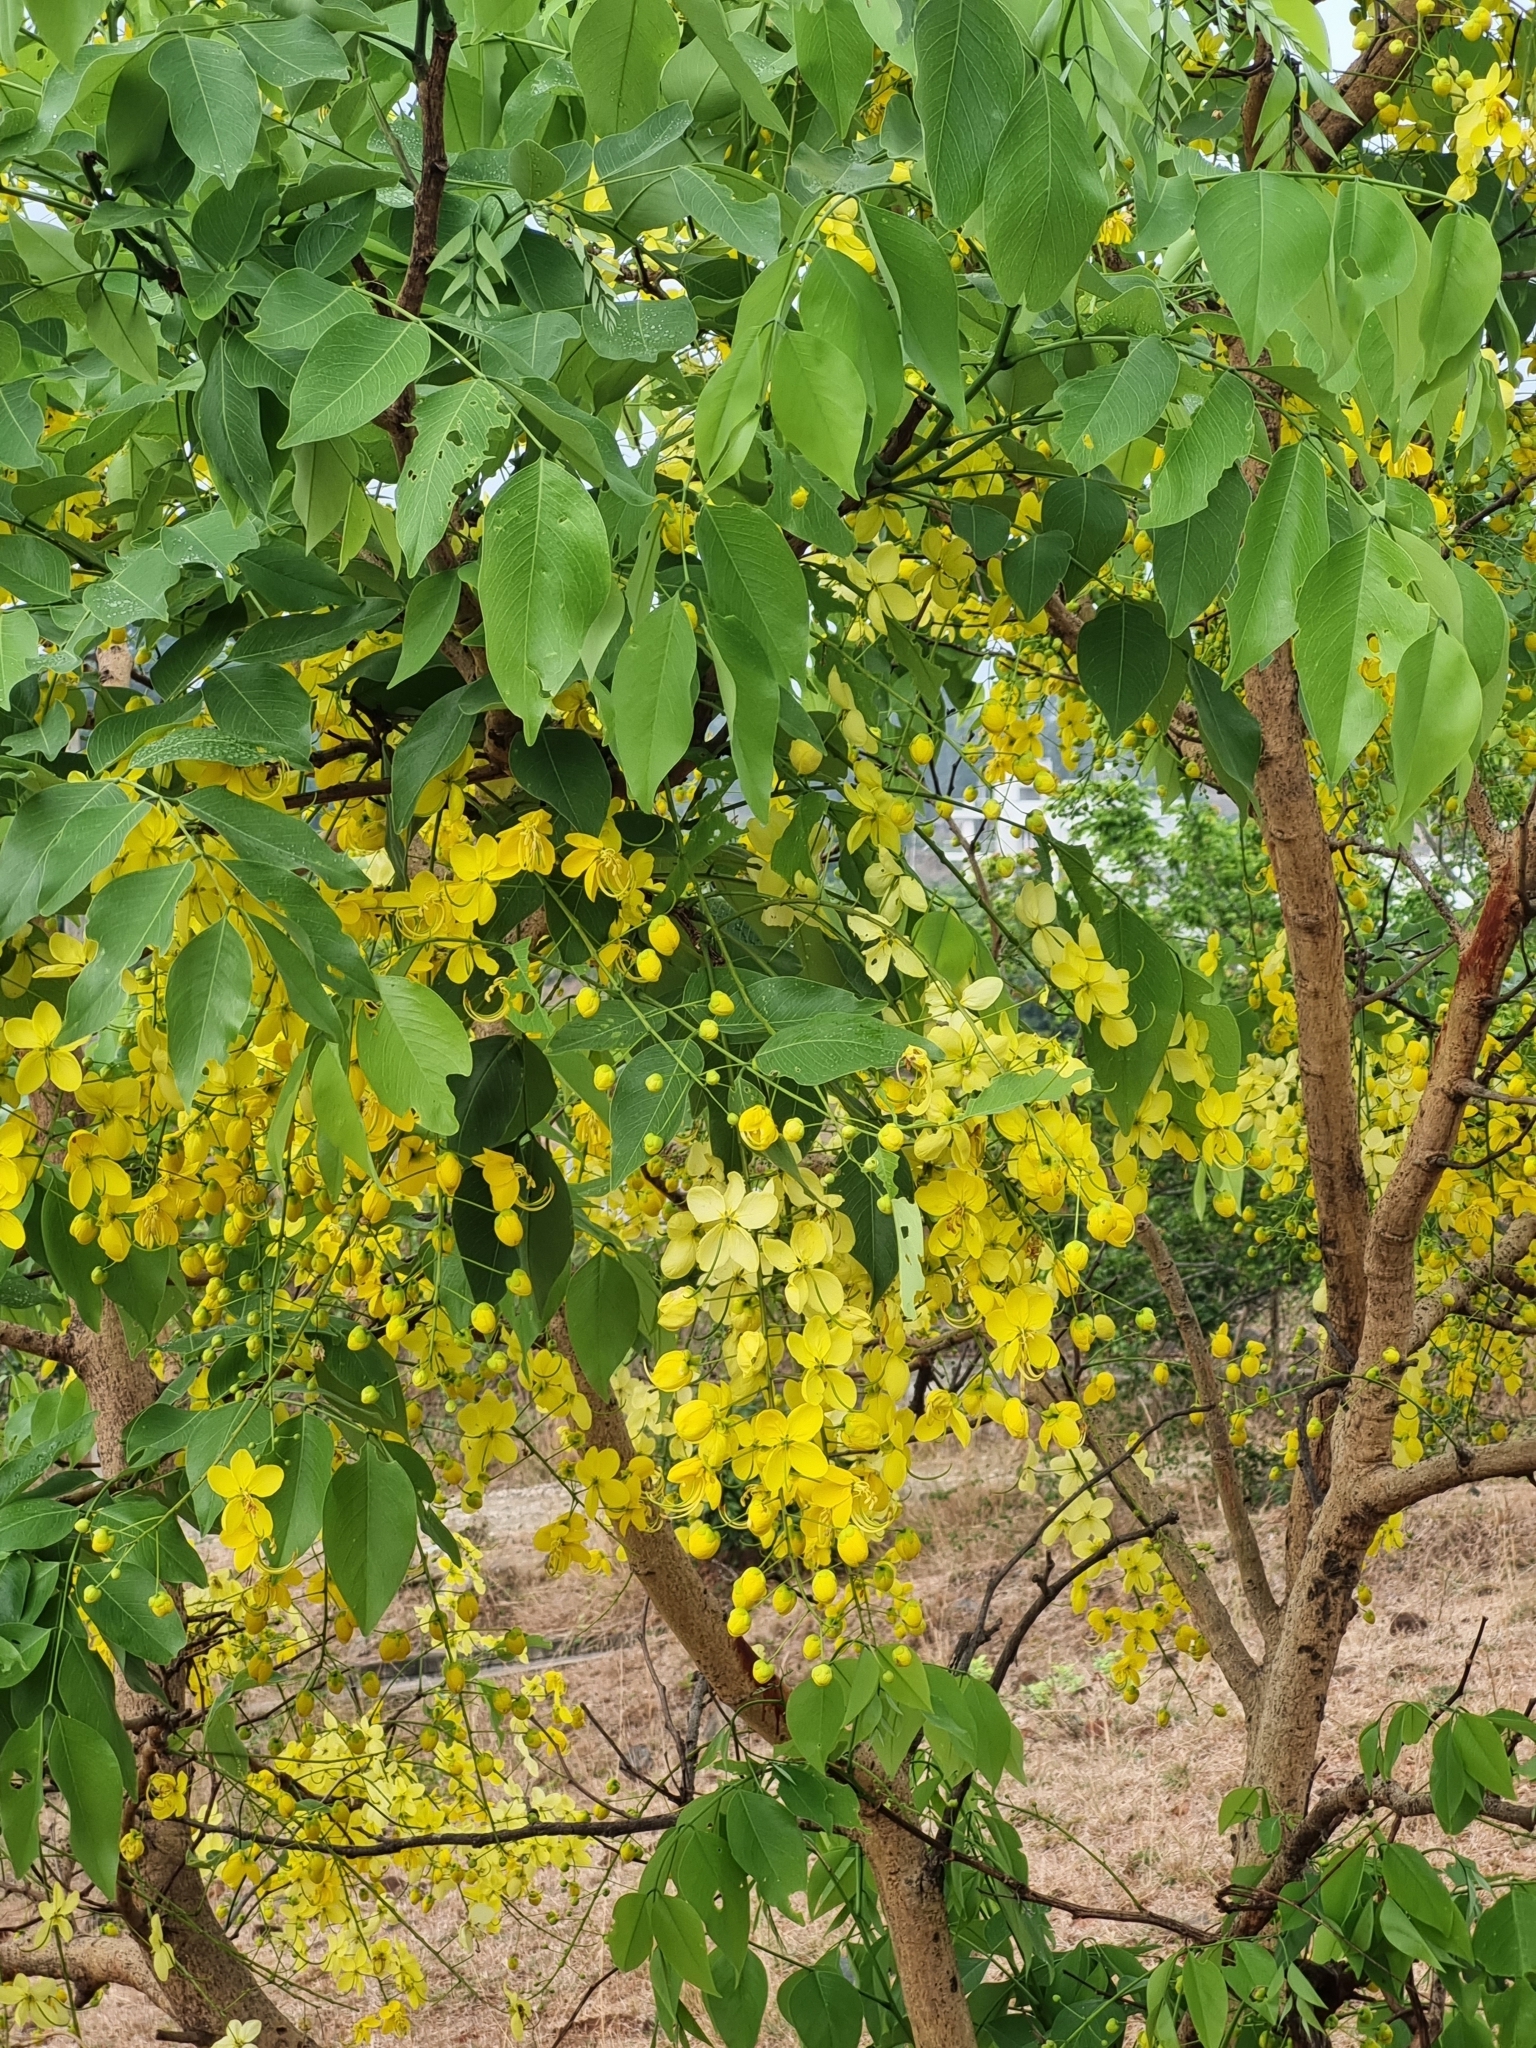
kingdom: Plantae
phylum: Tracheophyta
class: Magnoliopsida
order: Fabales
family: Fabaceae
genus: Cassia
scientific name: Cassia fistula
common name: Golden shower
